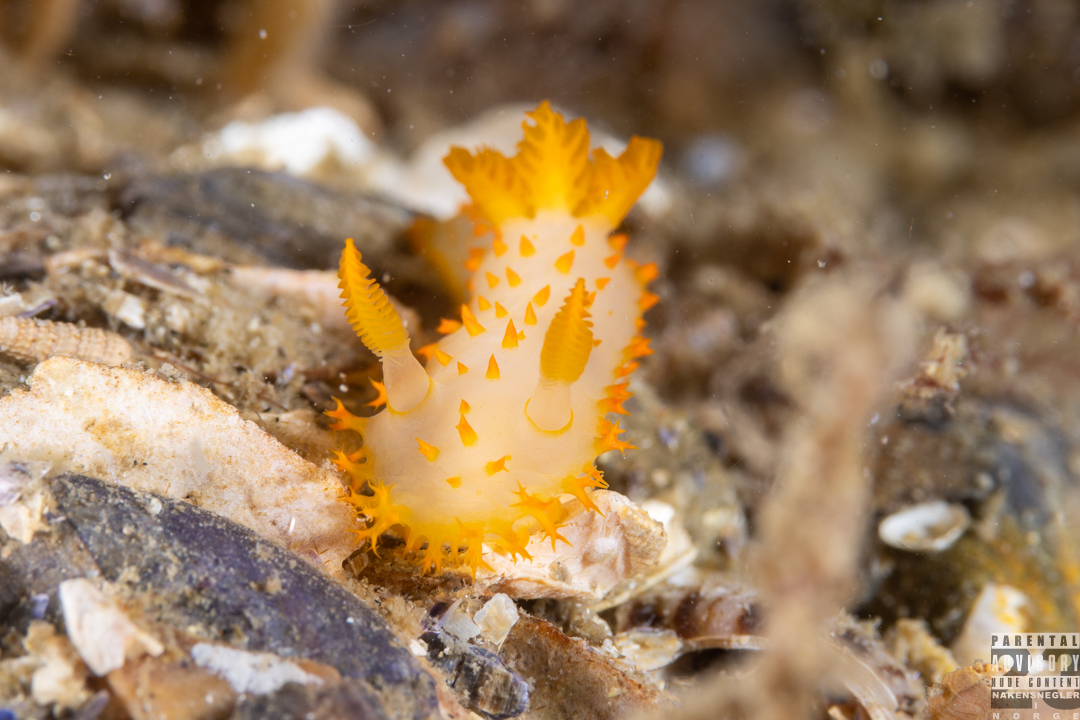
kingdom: Animalia
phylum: Mollusca
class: Gastropoda
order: Nudibranchia
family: Polyceridae
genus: Crimora
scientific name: Crimora papillata
